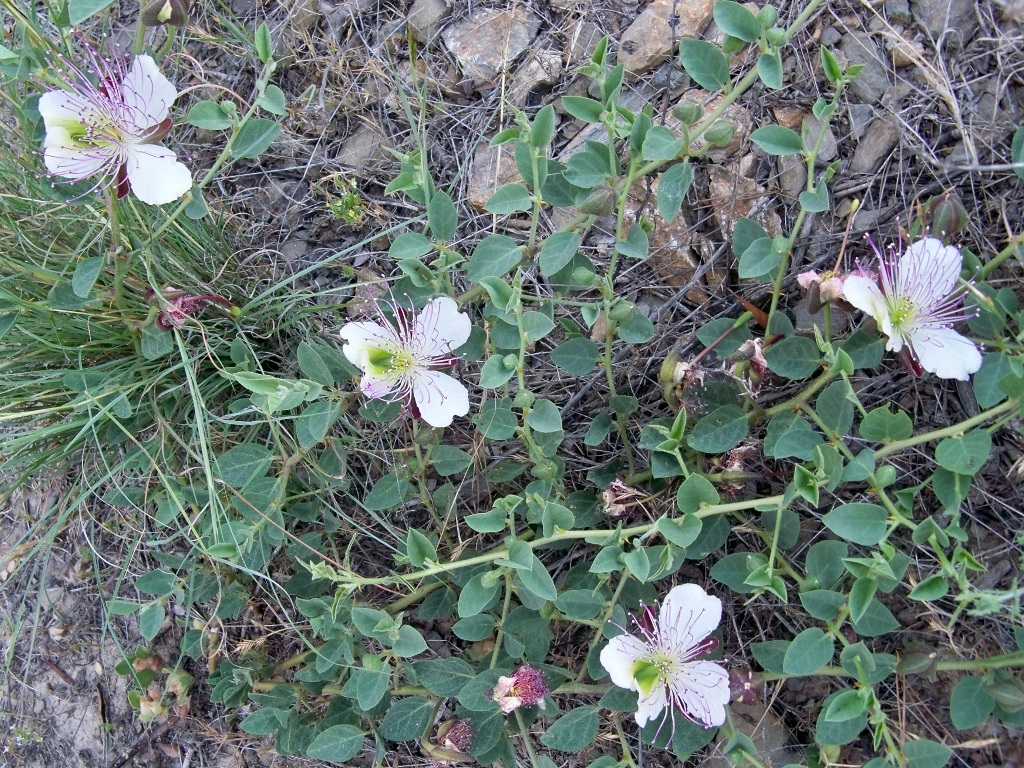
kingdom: Plantae
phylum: Tracheophyta
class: Magnoliopsida
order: Brassicales
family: Capparaceae
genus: Capparis
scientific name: Capparis spinosa
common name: Caper
